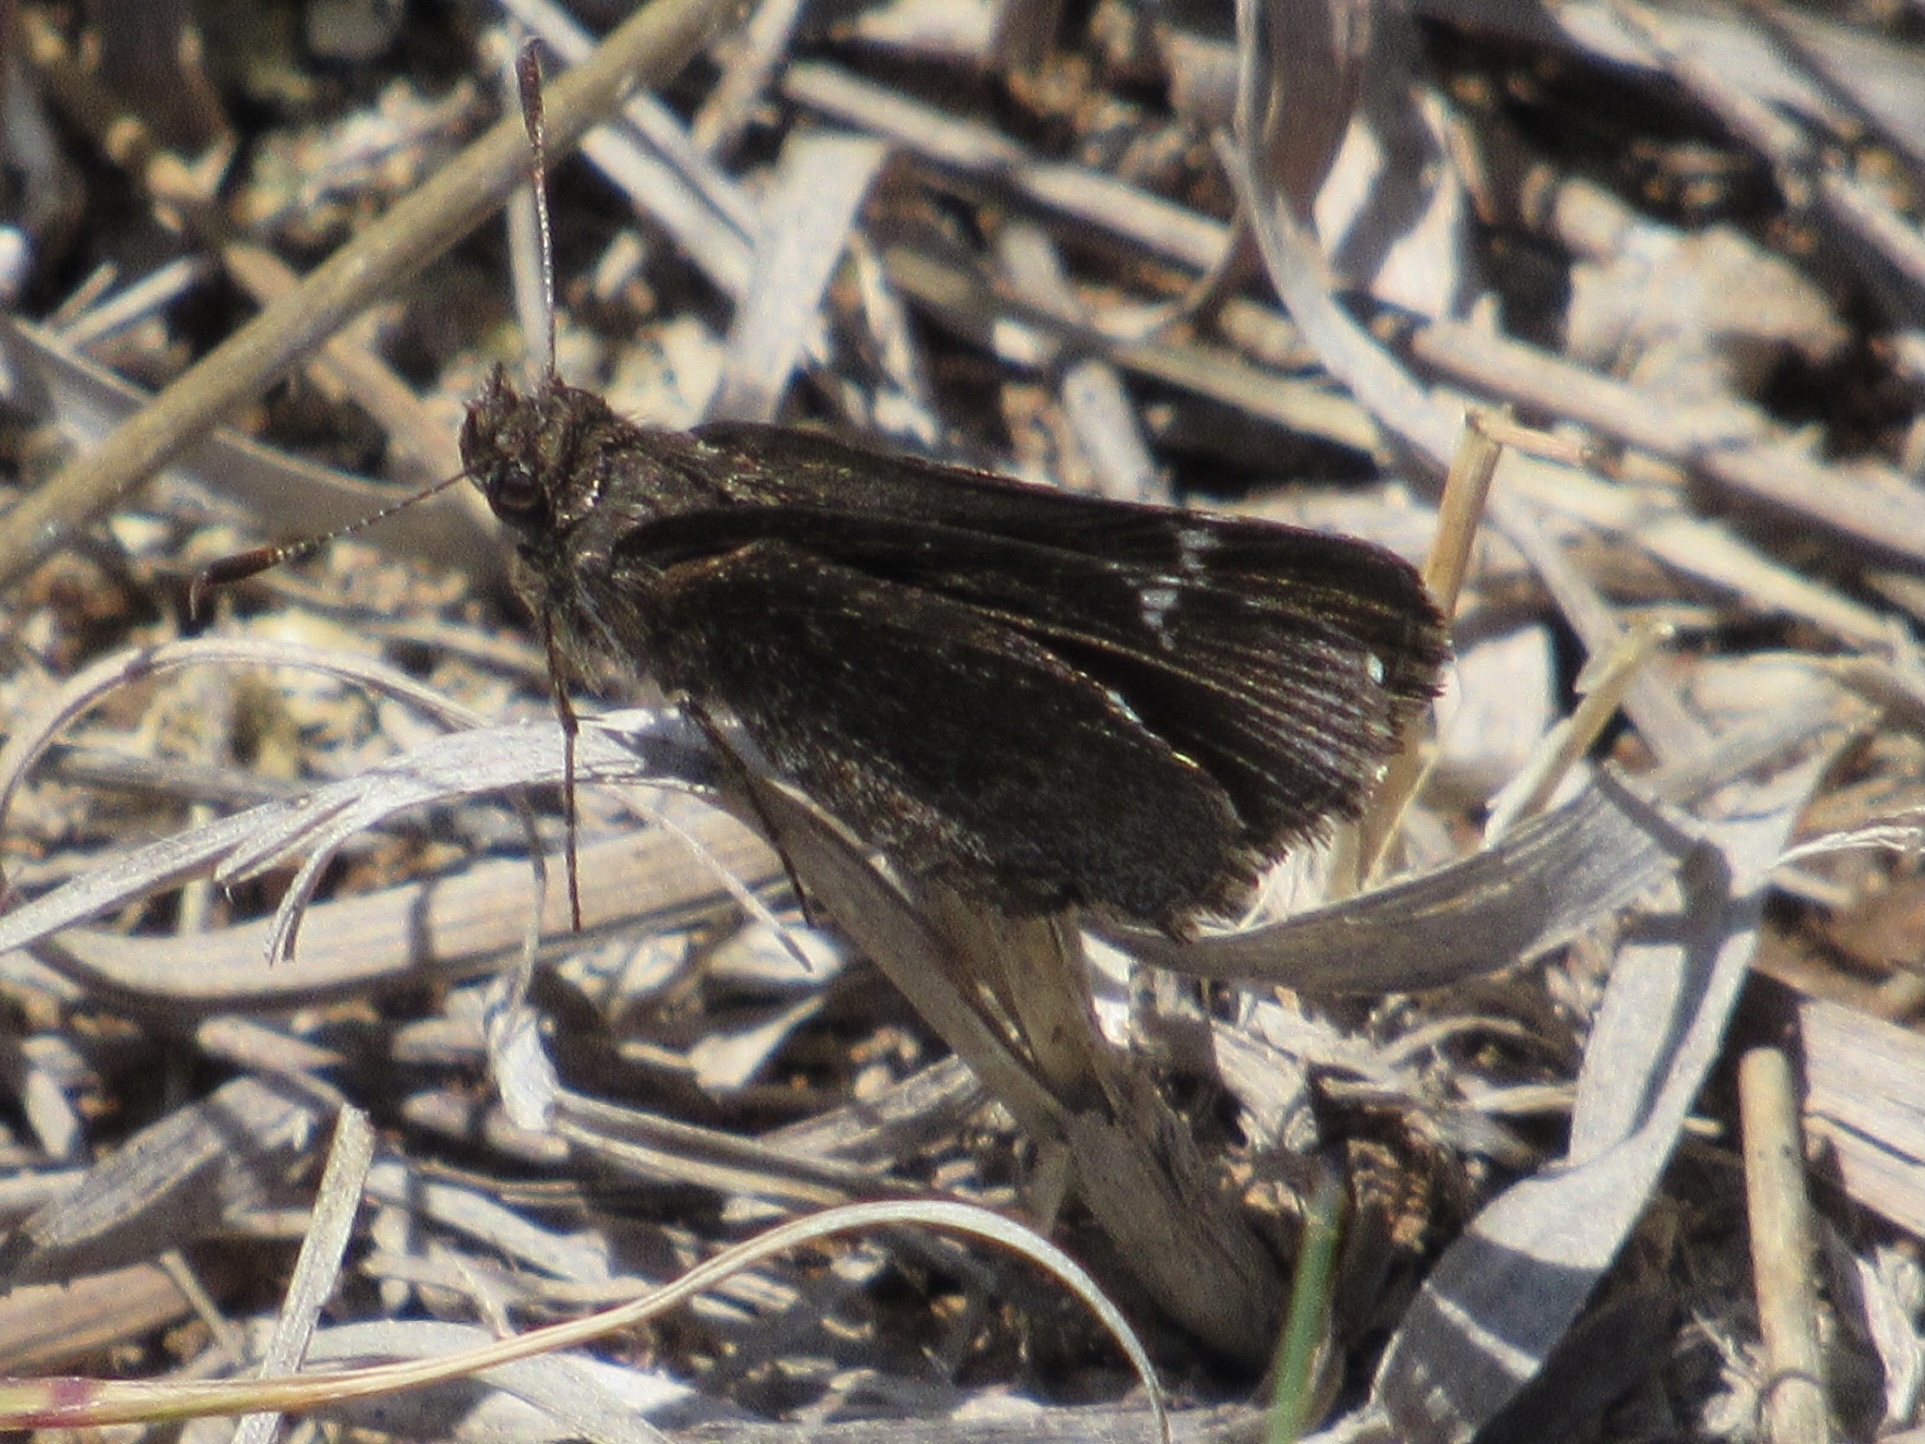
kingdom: Animalia
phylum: Arthropoda
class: Insecta
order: Lepidoptera
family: Hesperiidae
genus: Mastor
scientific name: Mastor vialis
